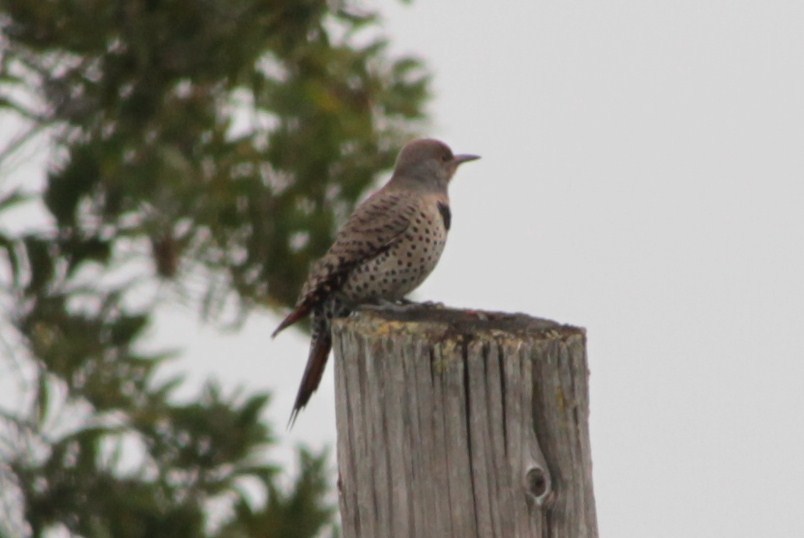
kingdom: Animalia
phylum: Chordata
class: Aves
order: Piciformes
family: Picidae
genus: Colaptes
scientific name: Colaptes auratus
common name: Northern flicker
